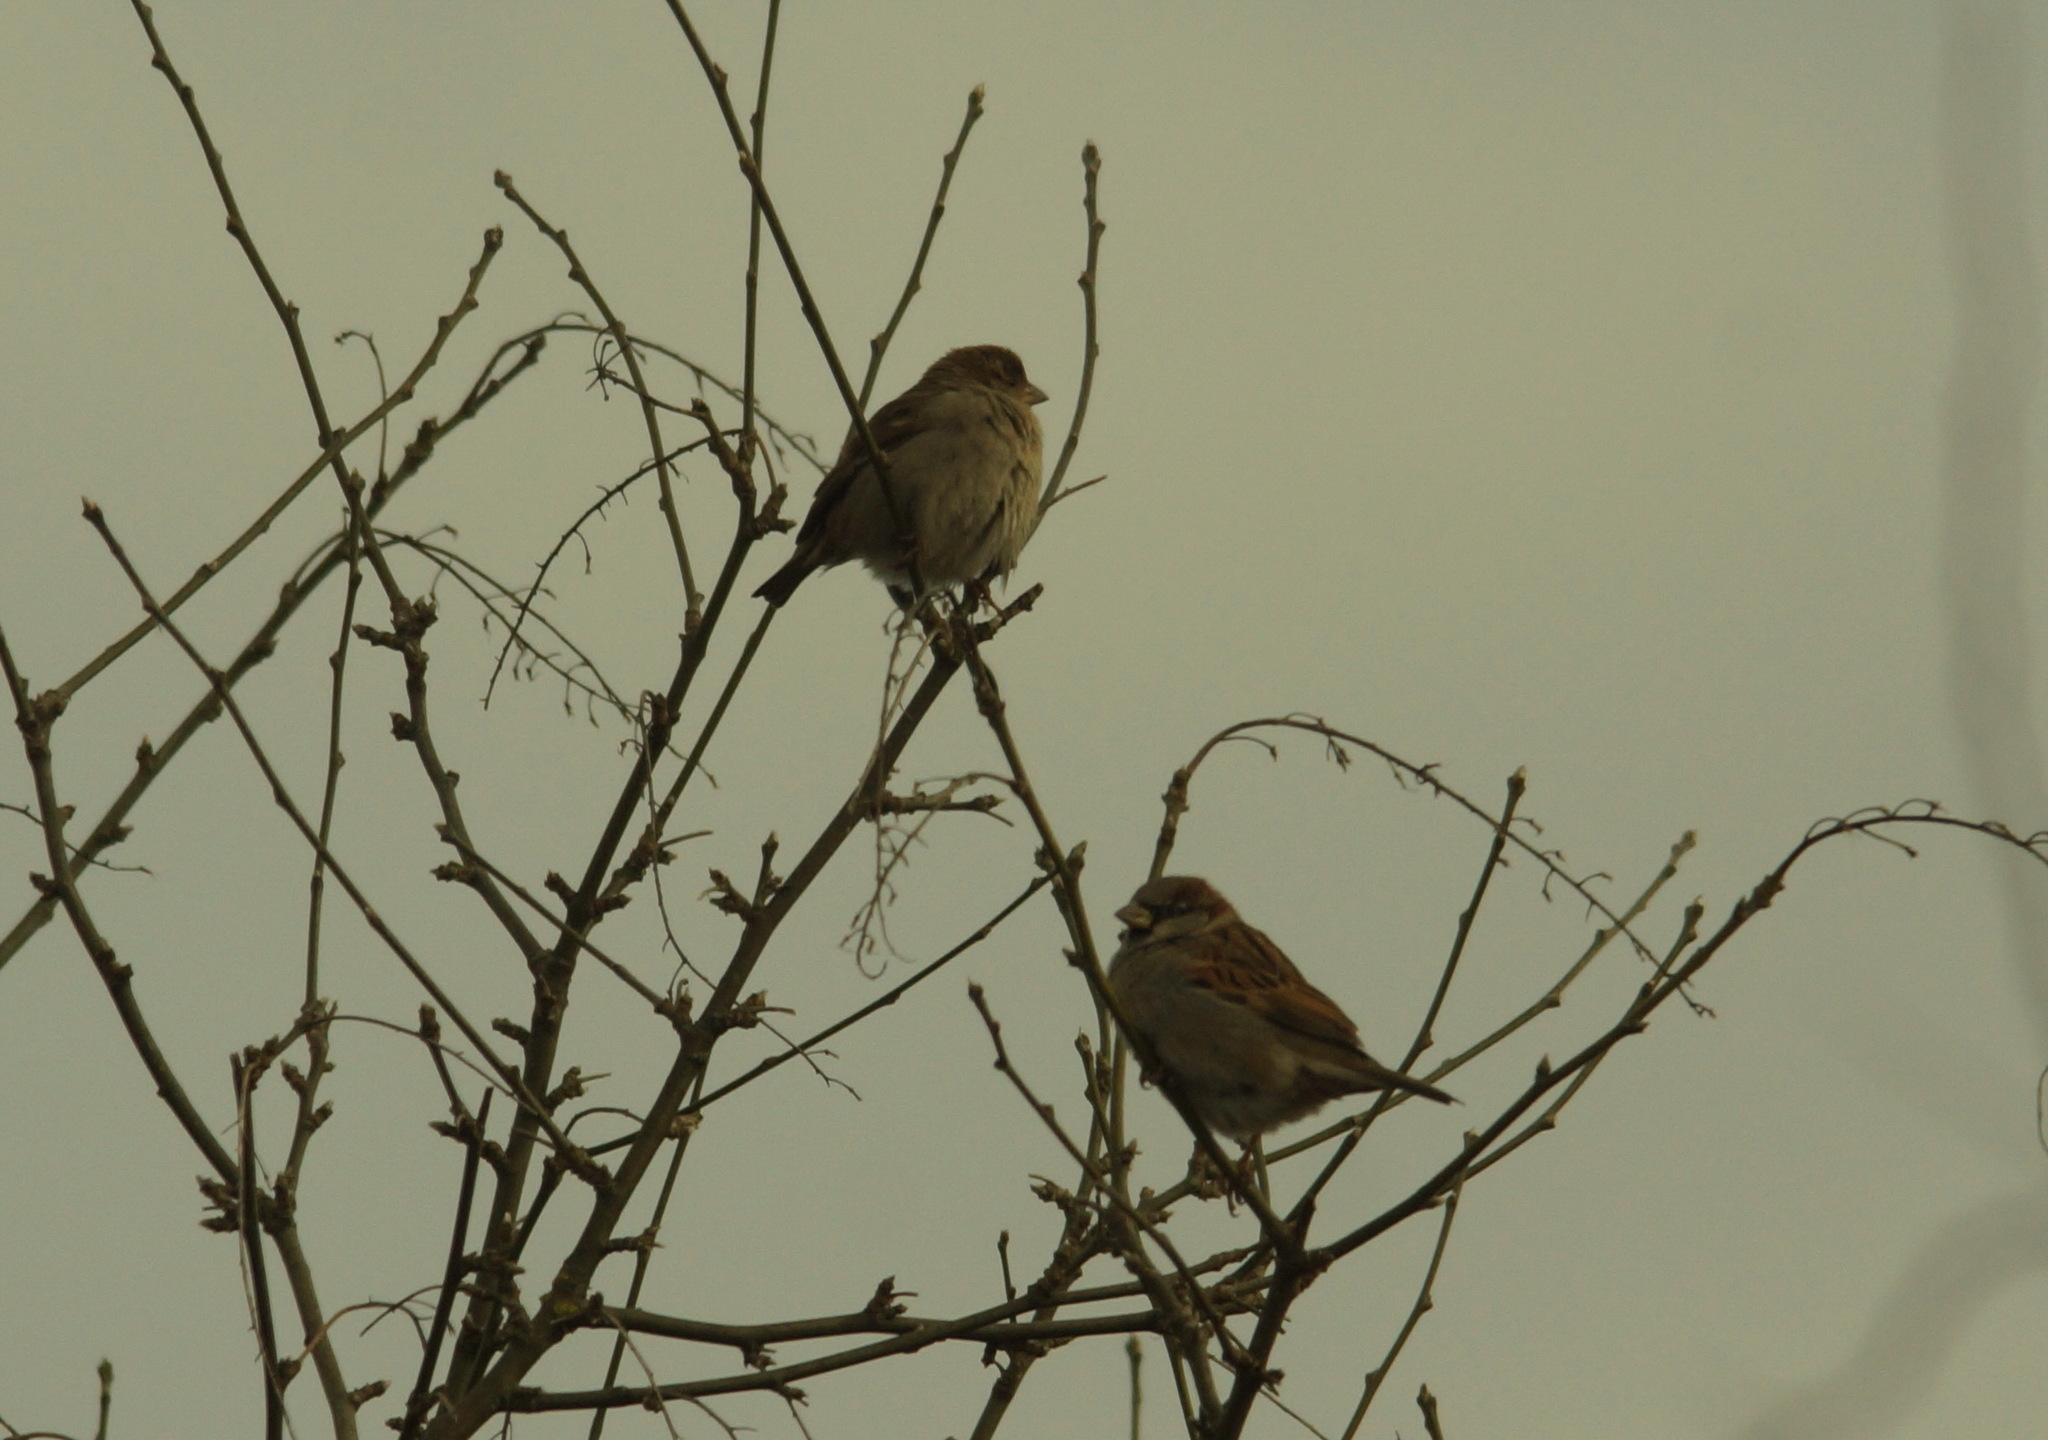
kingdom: Animalia
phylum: Chordata
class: Aves
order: Passeriformes
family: Passeridae
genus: Passer
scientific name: Passer domesticus
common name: House sparrow
